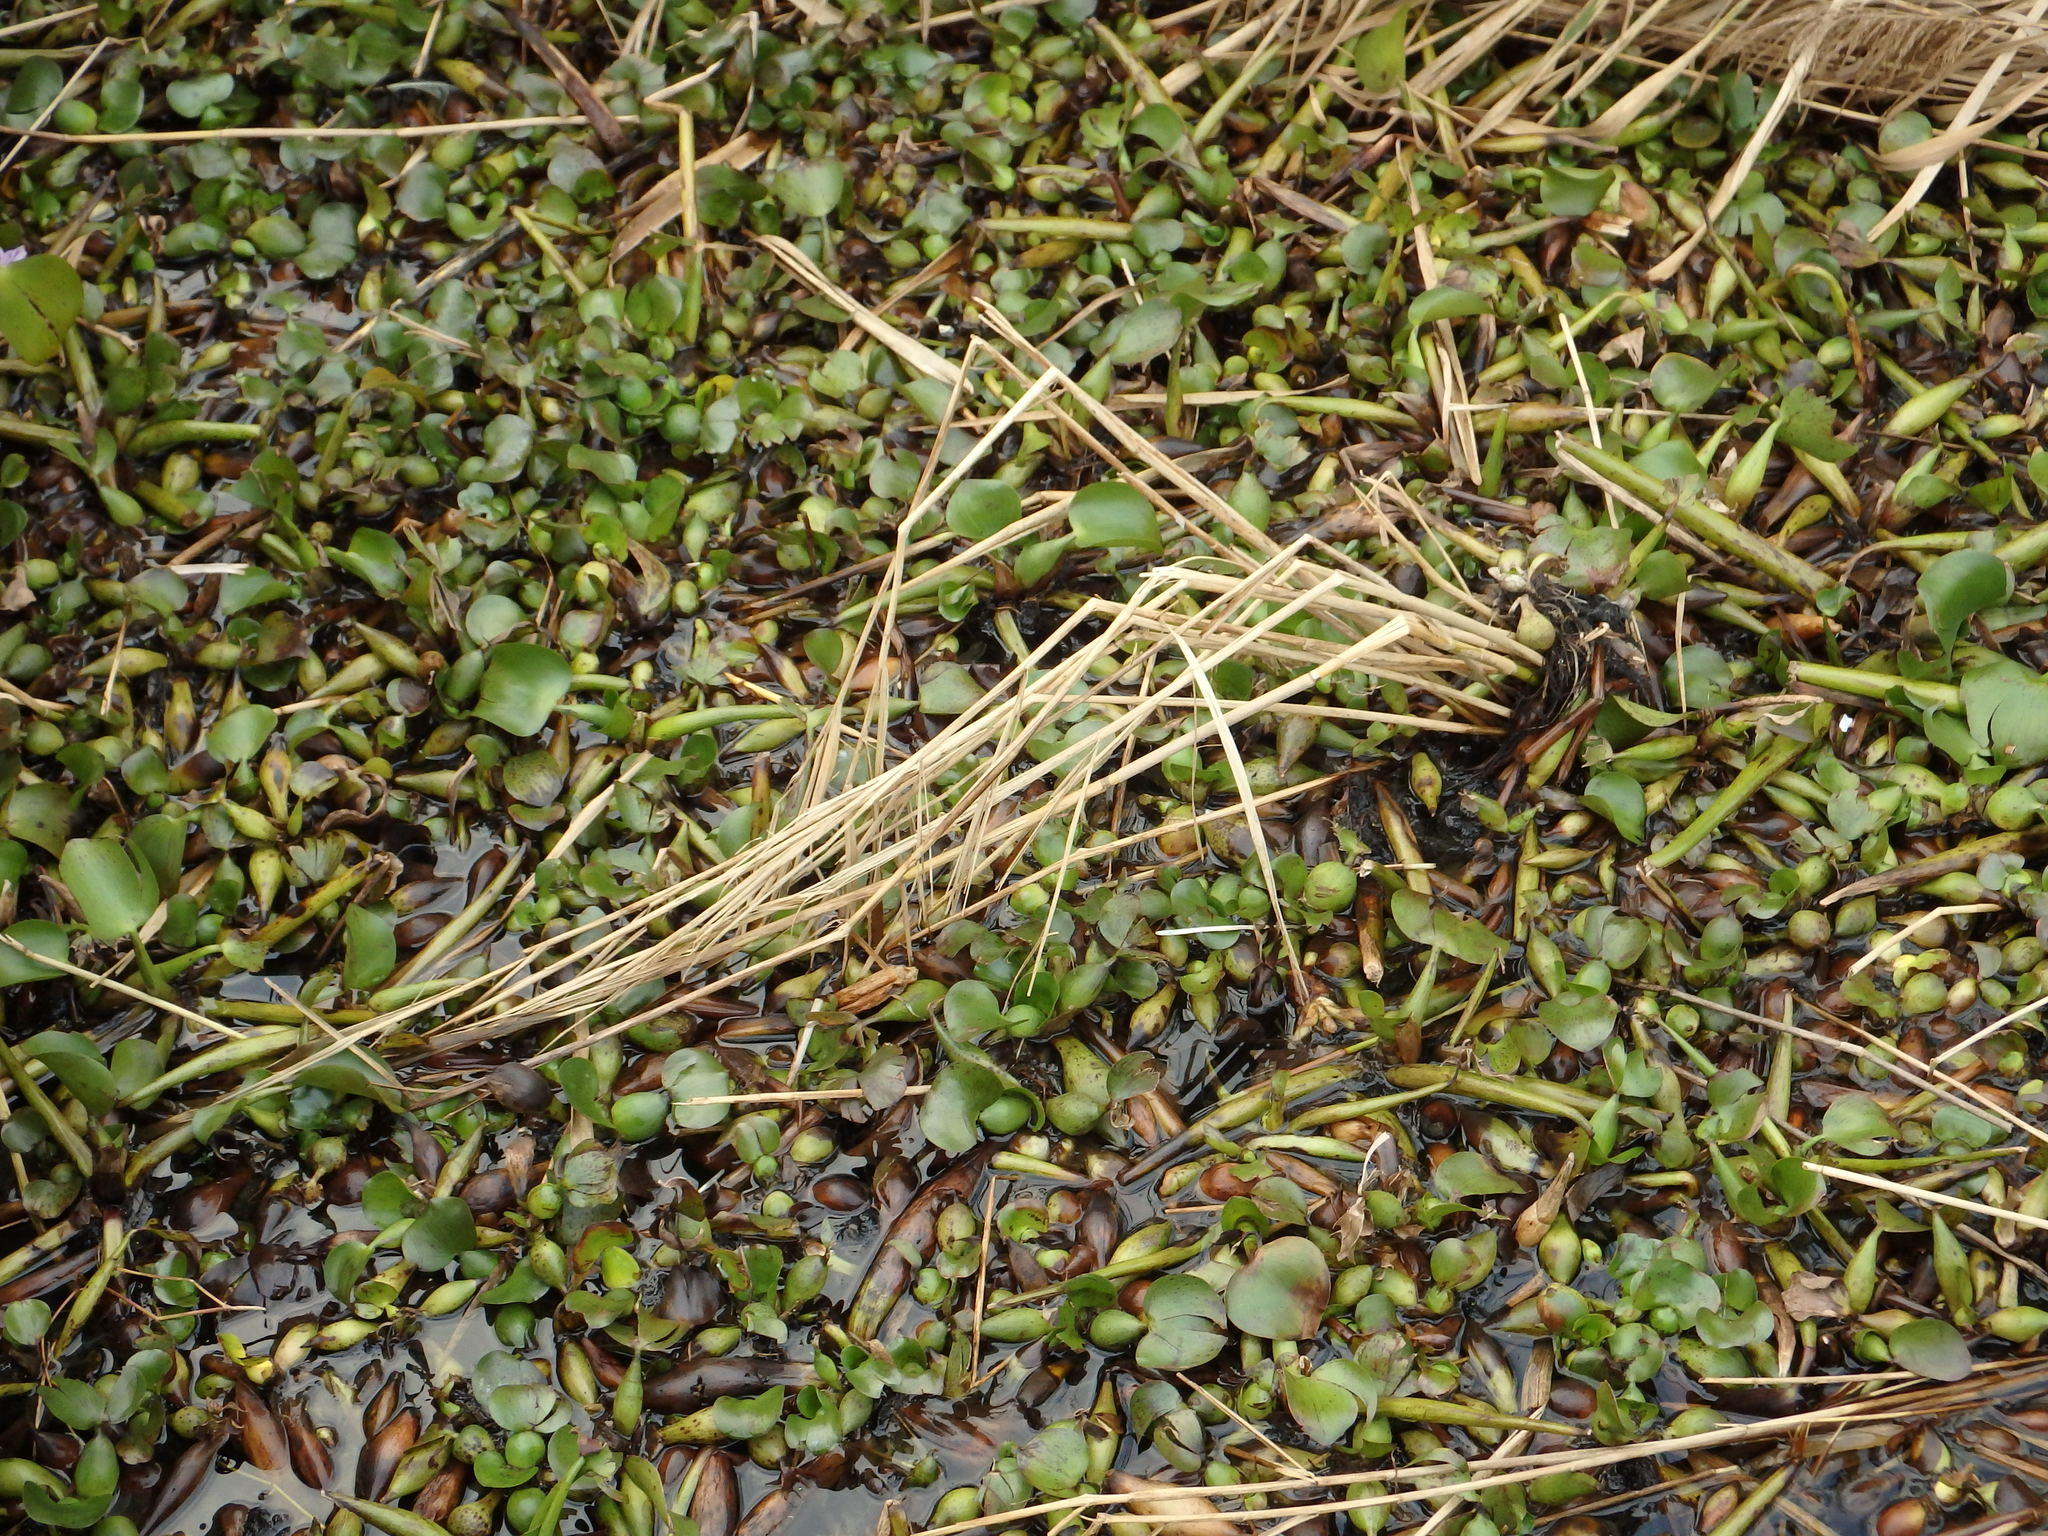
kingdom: Plantae
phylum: Tracheophyta
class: Liliopsida
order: Commelinales
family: Pontederiaceae
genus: Pontederia
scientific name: Pontederia crassipes
